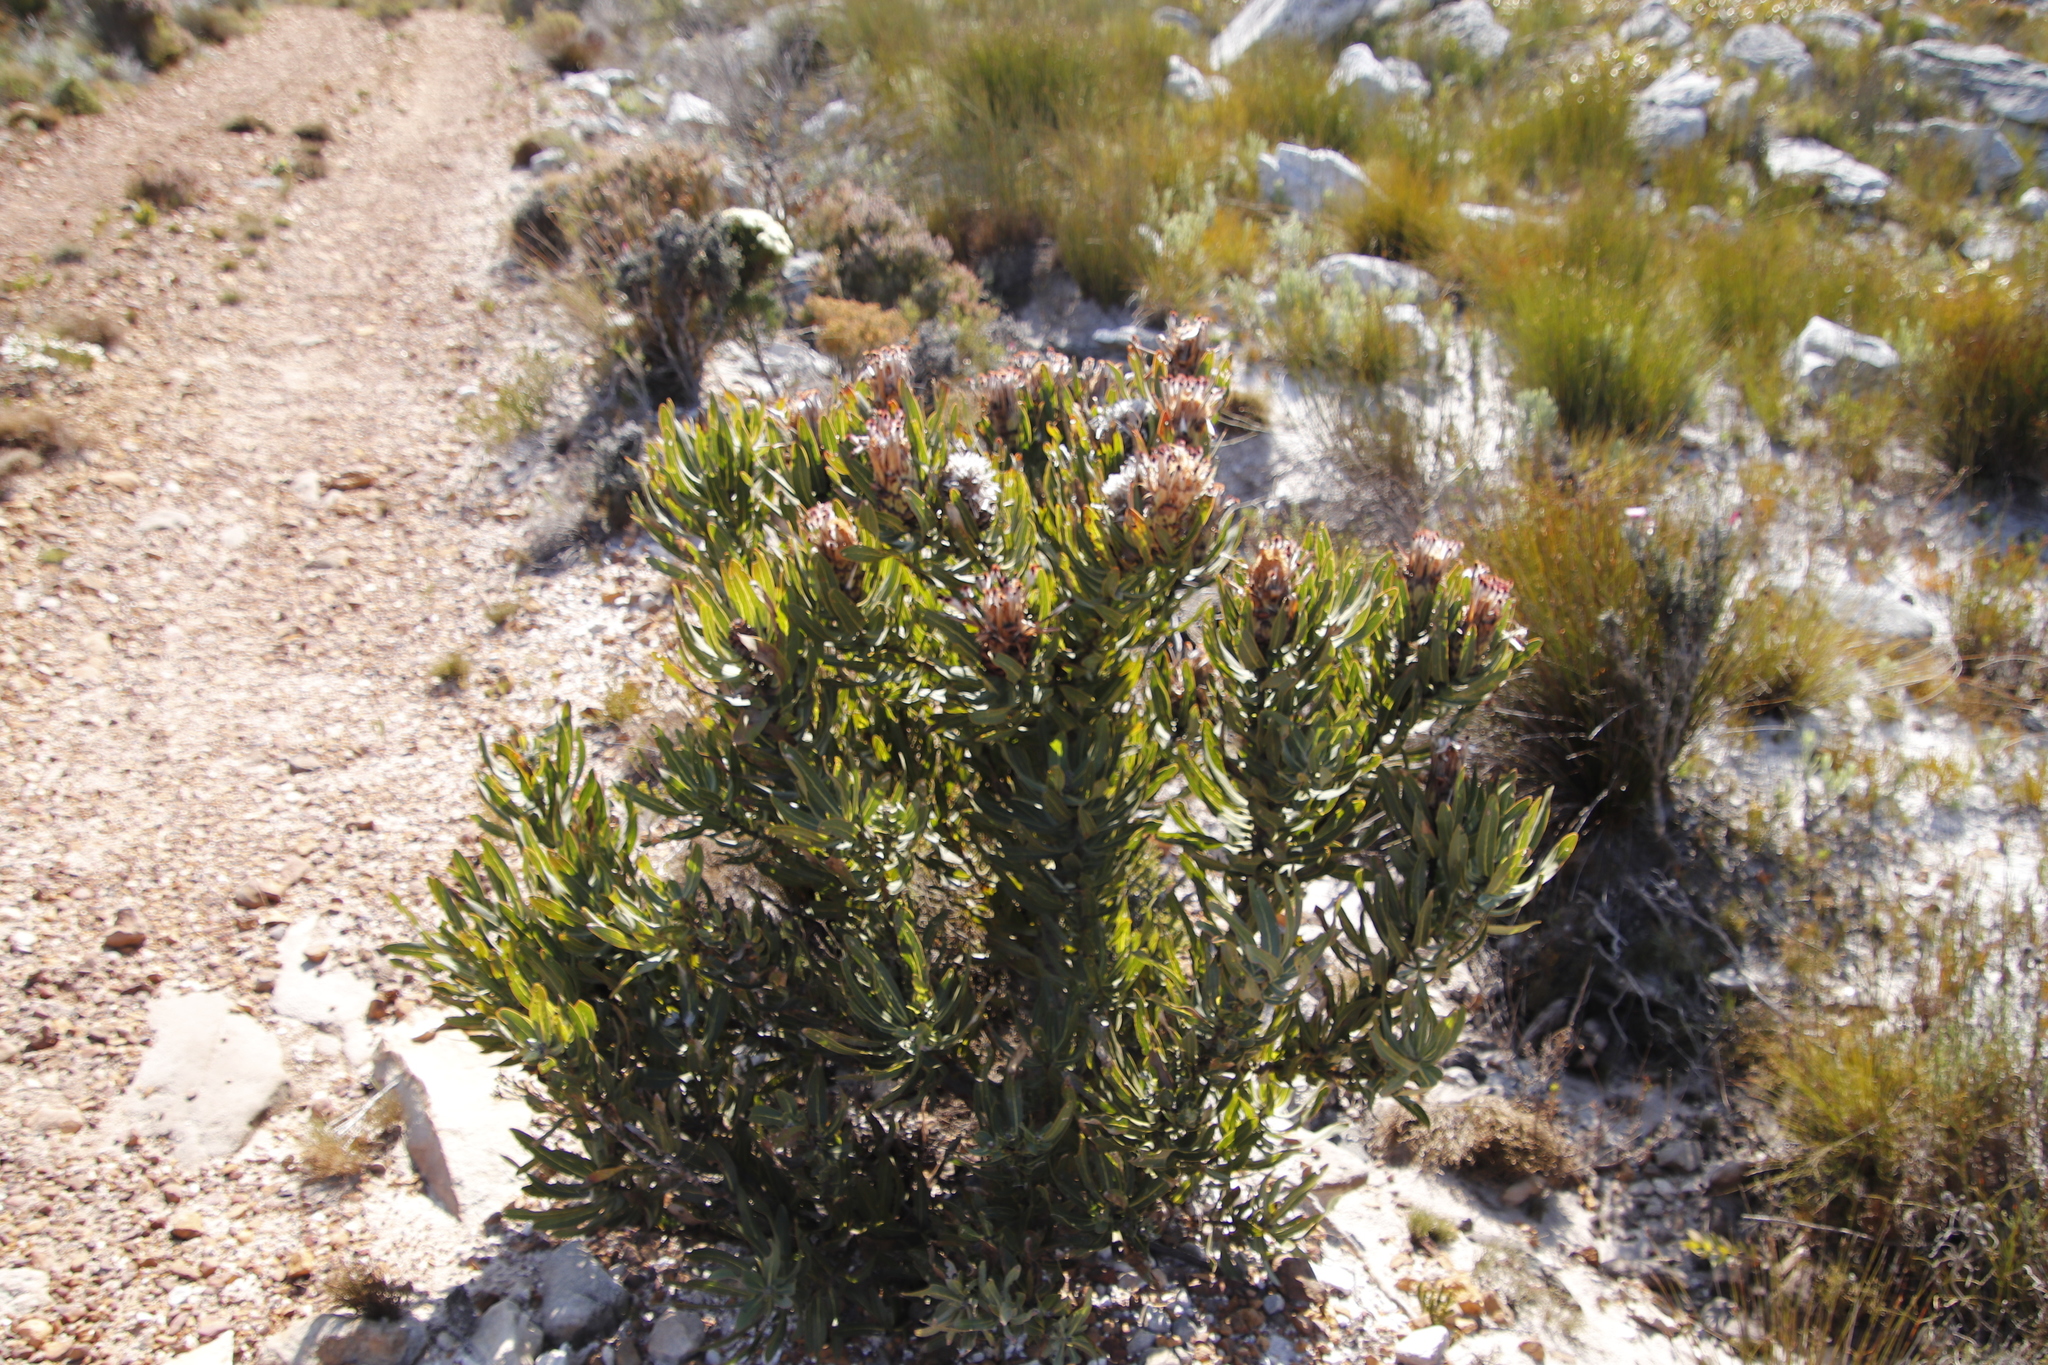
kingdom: Plantae
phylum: Tracheophyta
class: Magnoliopsida
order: Proteales
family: Proteaceae
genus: Protea
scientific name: Protea neriifolia
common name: Blue sugarbush
